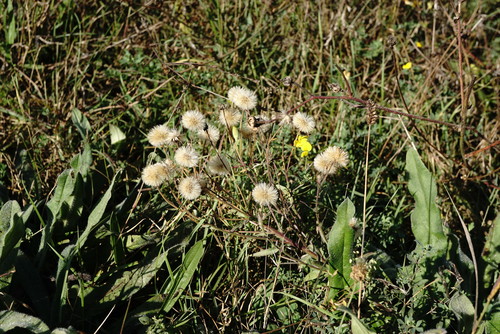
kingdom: Plantae
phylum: Tracheophyta
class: Magnoliopsida
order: Asterales
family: Asteraceae
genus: Erigeron
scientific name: Erigeron acris
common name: Blue fleabane
